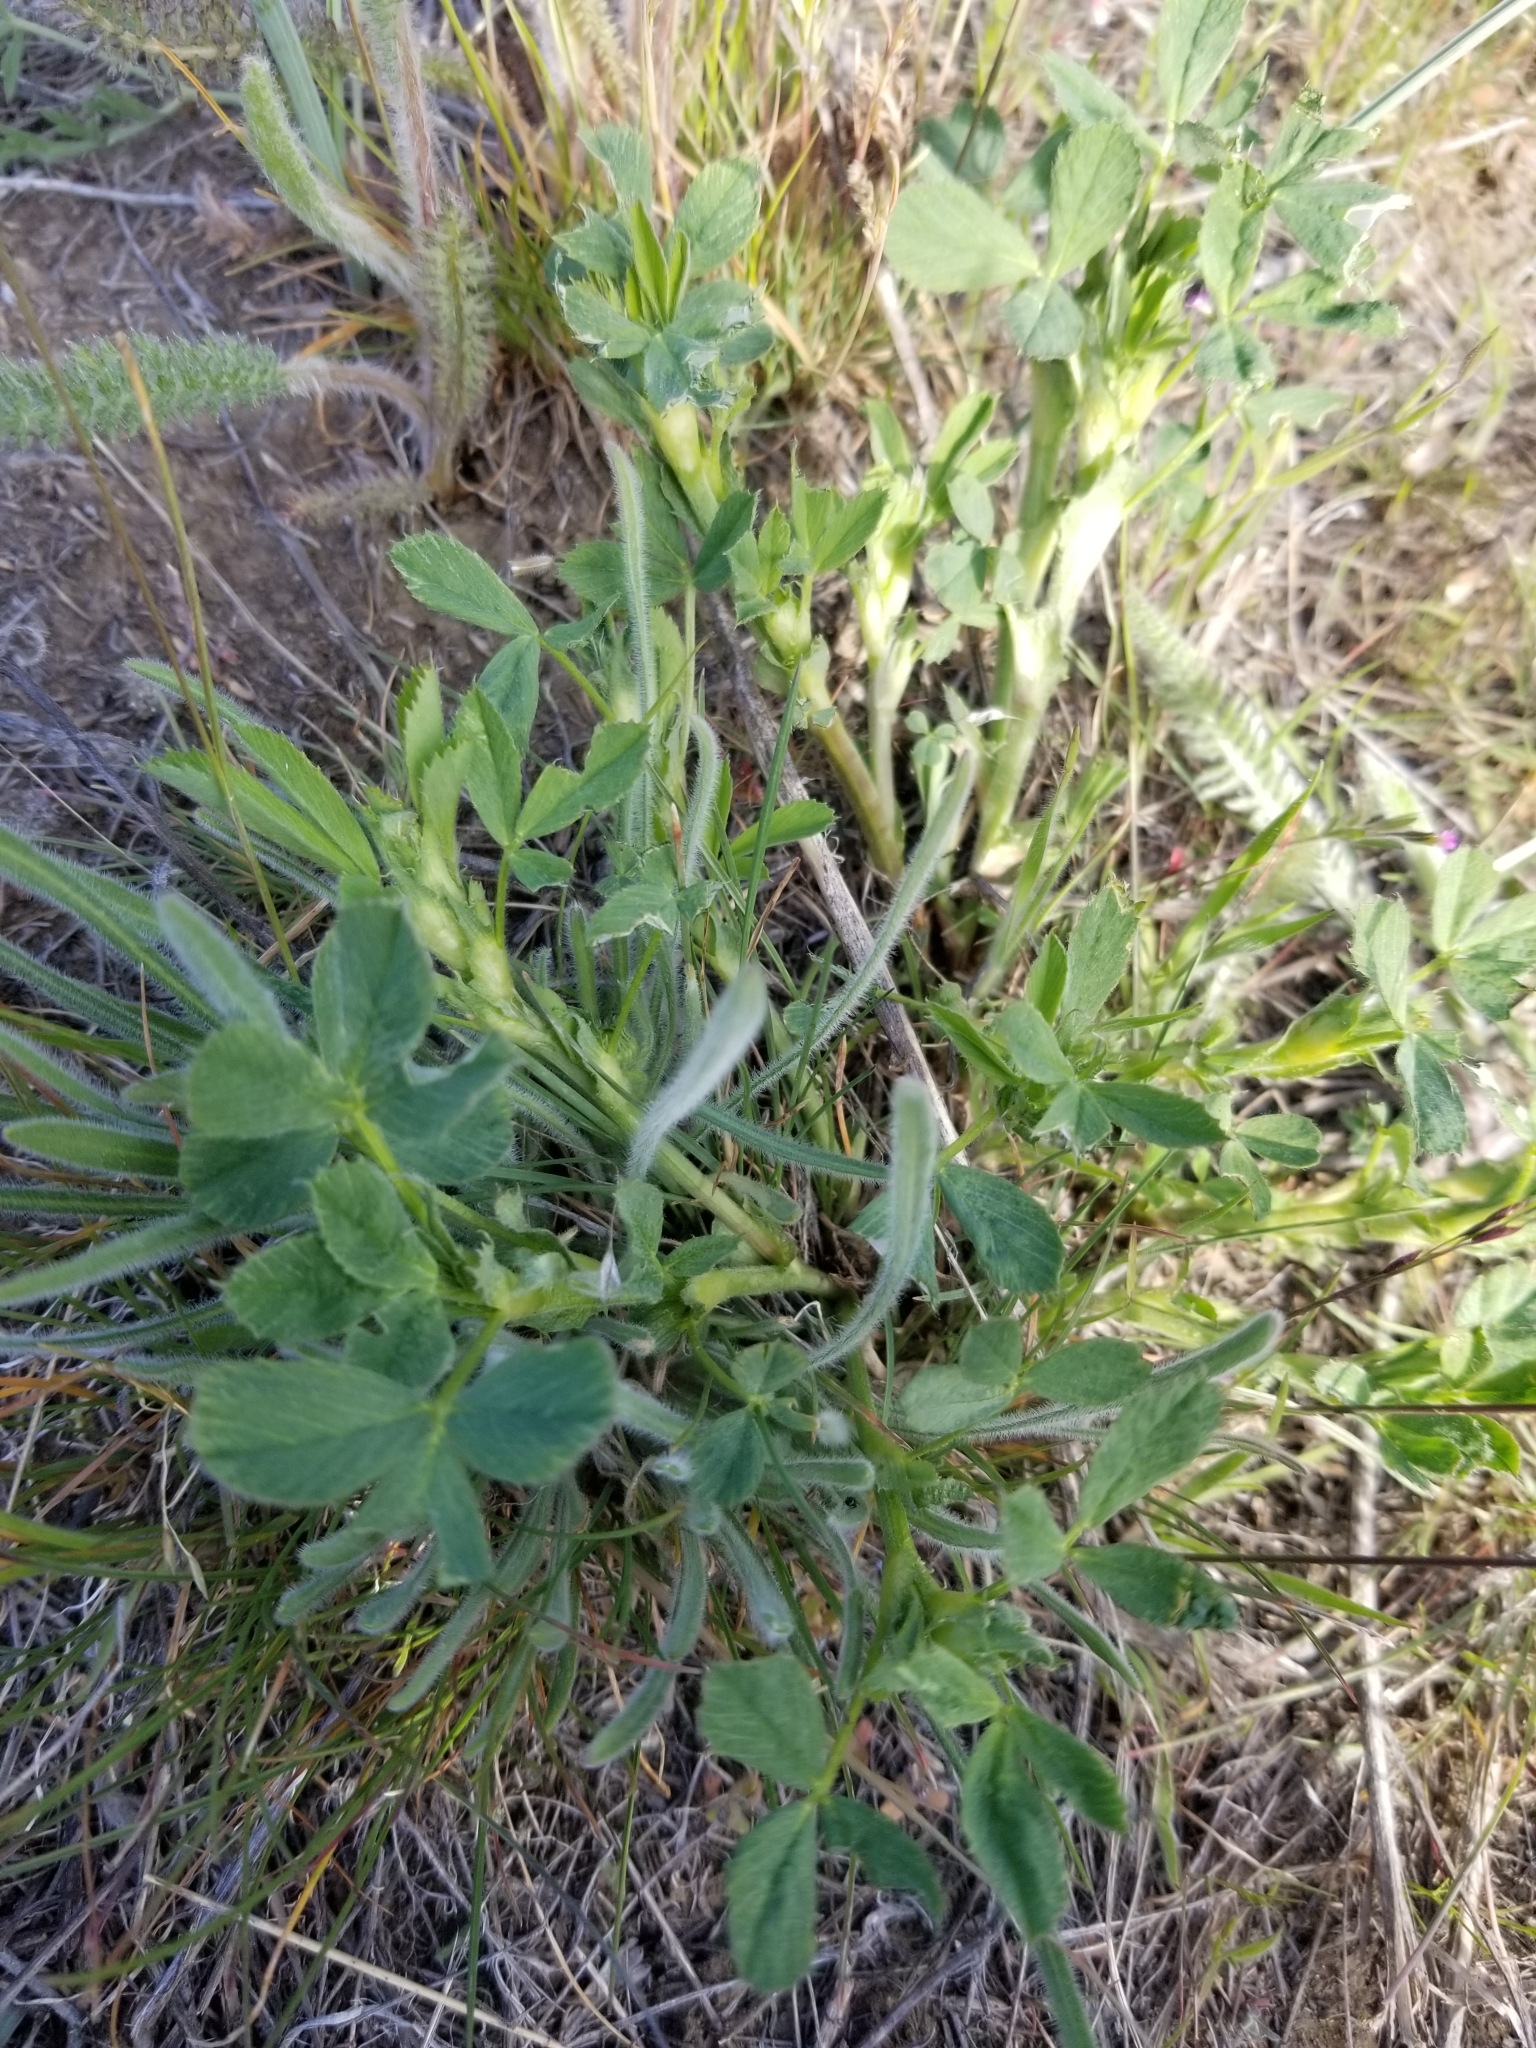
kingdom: Plantae
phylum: Tracheophyta
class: Magnoliopsida
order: Fabales
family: Fabaceae
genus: Medicago
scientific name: Medicago sativa
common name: Alfalfa
